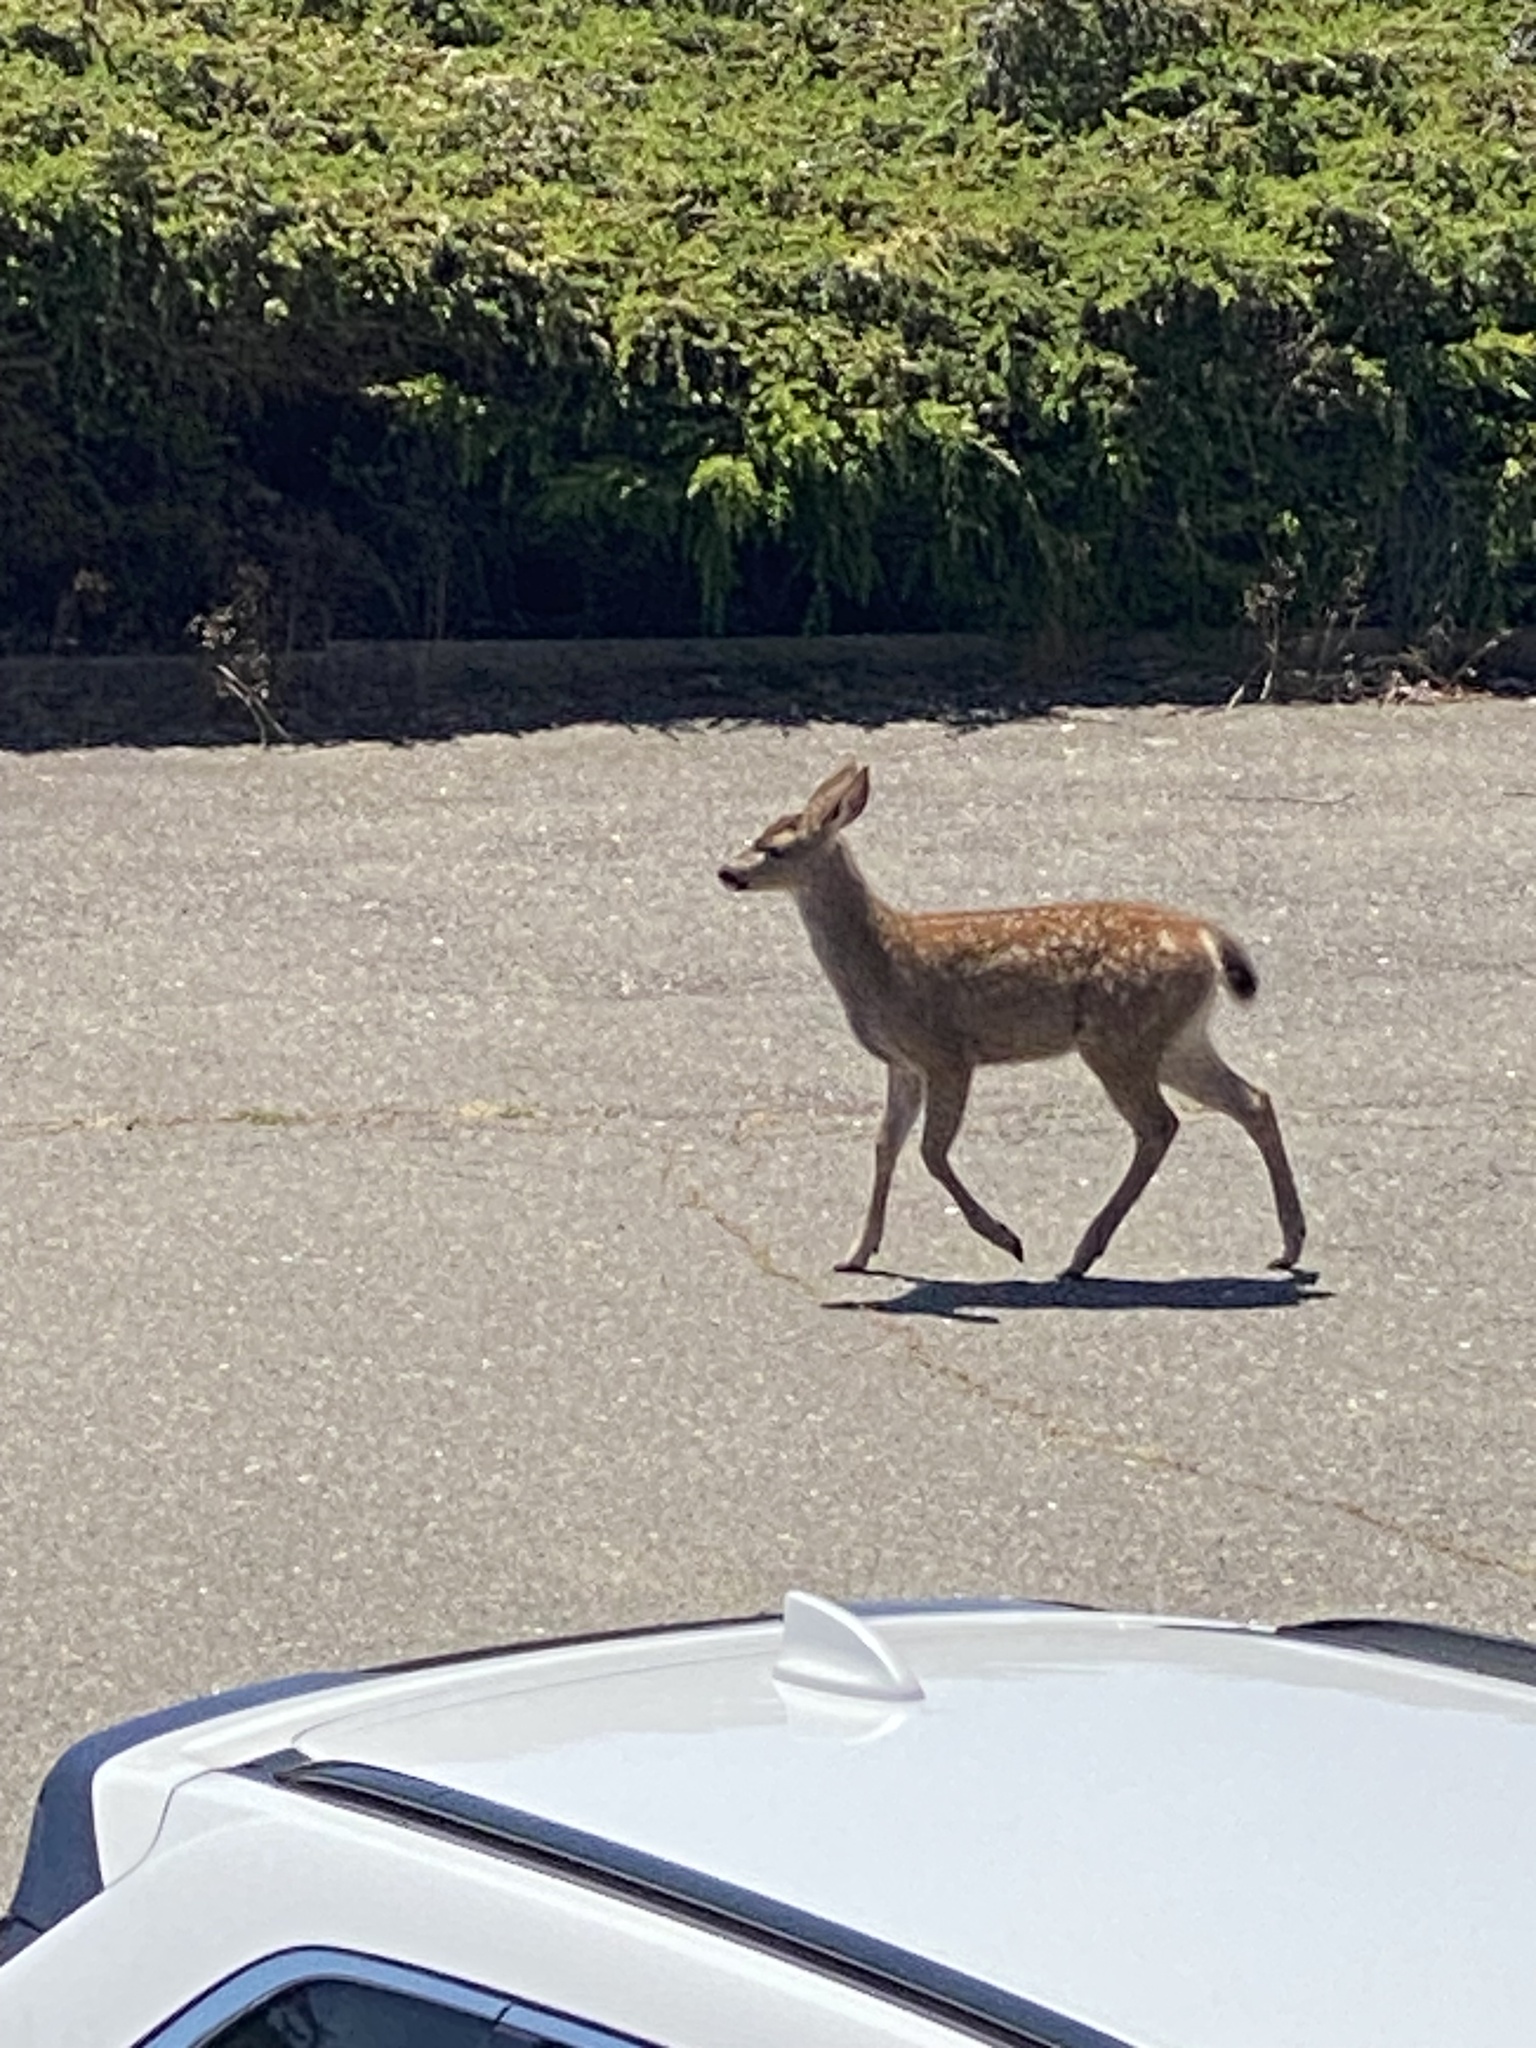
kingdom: Animalia
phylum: Chordata
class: Mammalia
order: Artiodactyla
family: Cervidae
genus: Odocoileus
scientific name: Odocoileus hemionus
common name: Mule deer
